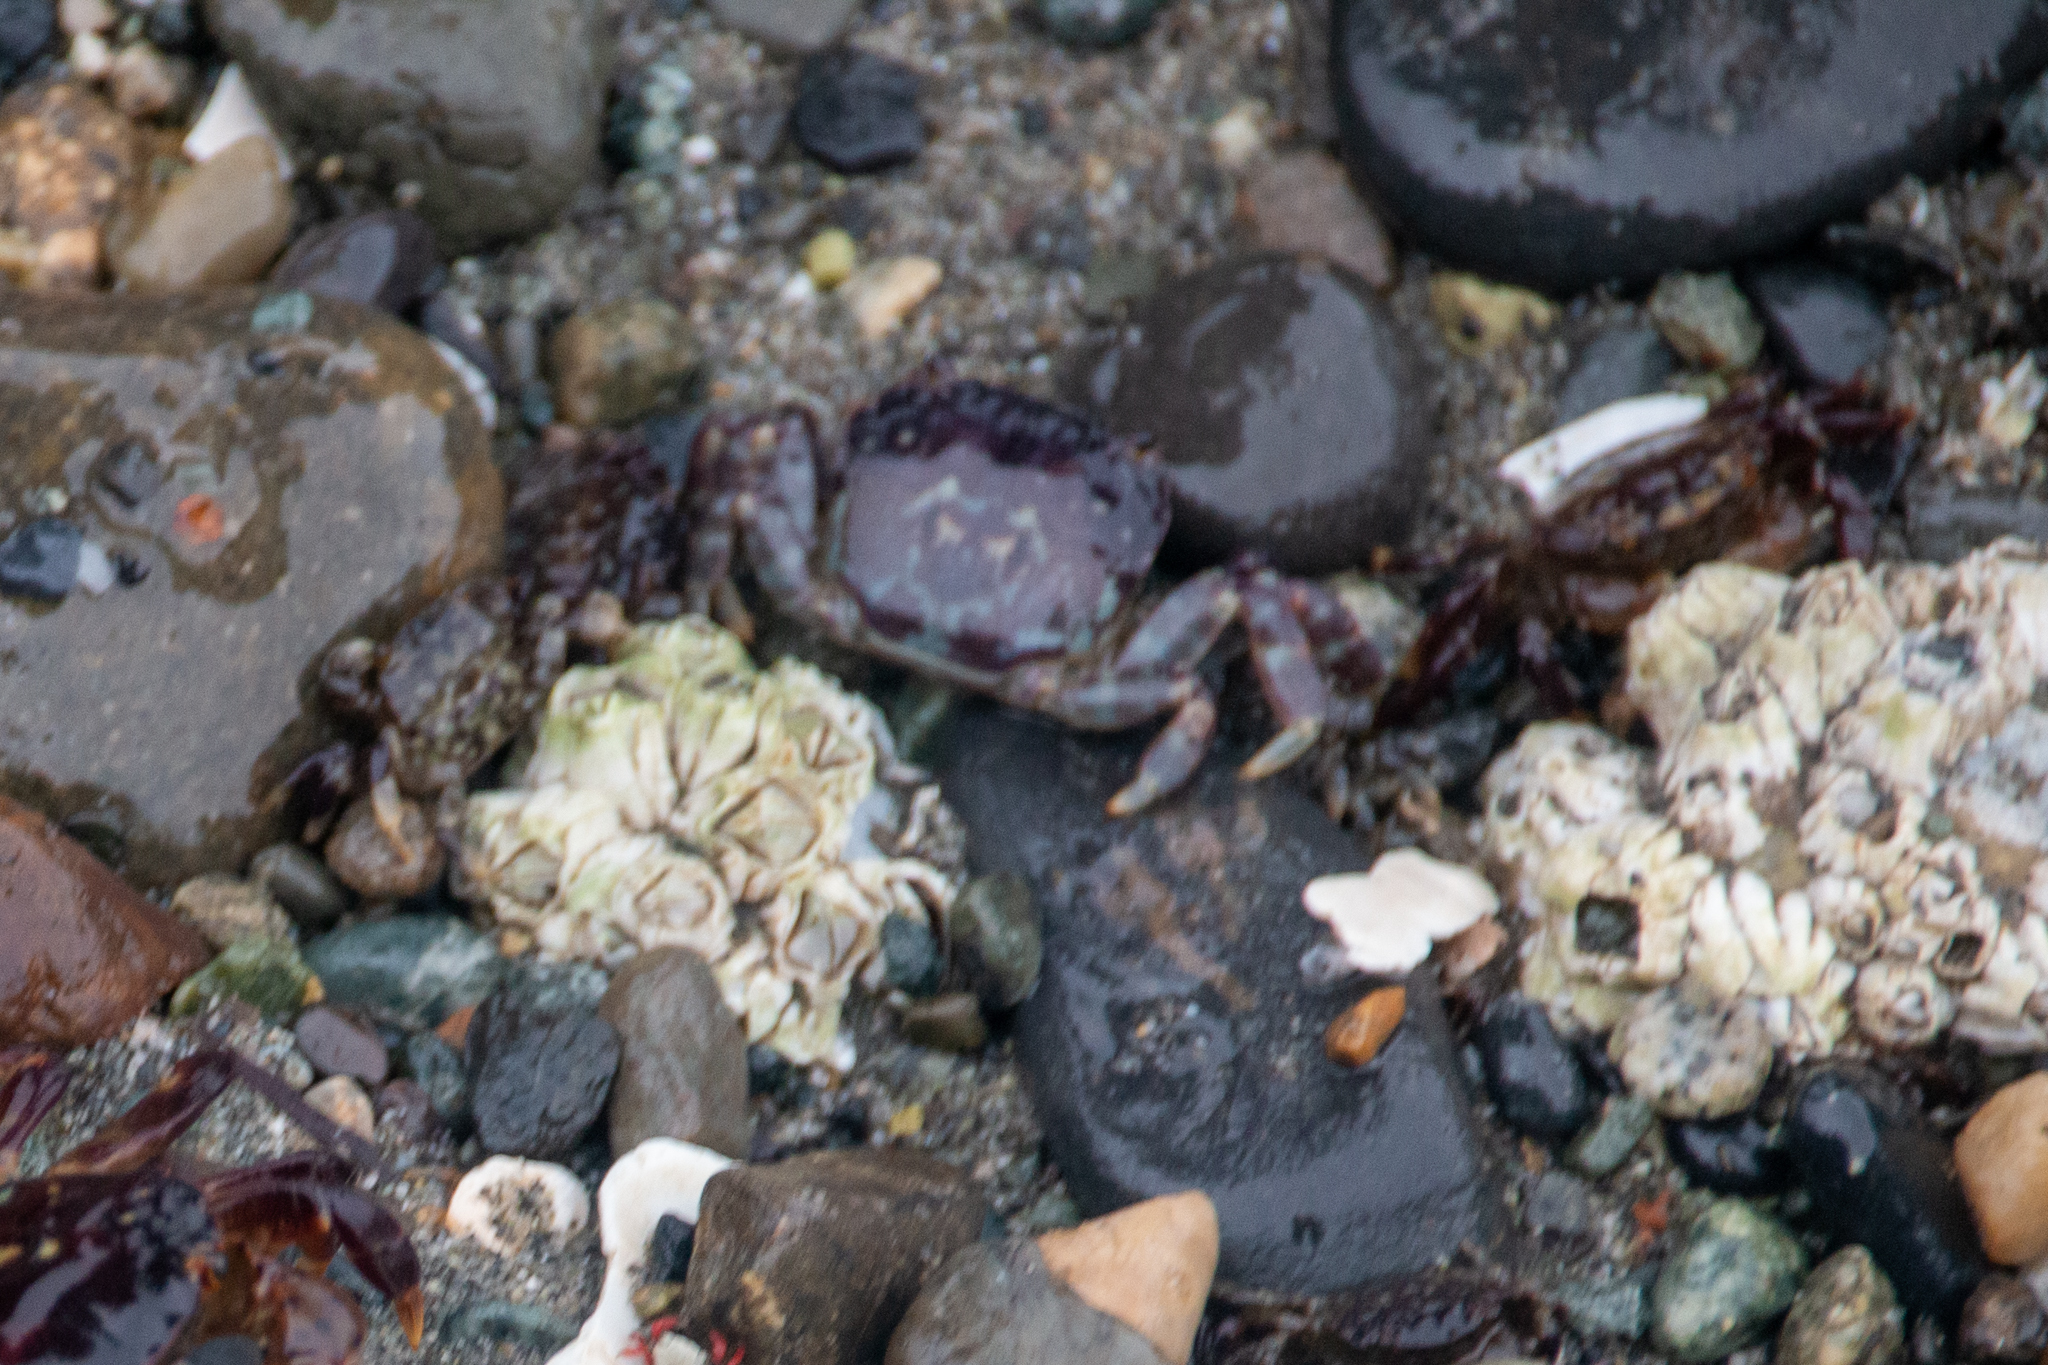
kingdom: Animalia
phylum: Arthropoda
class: Malacostraca
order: Decapoda
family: Varunidae
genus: Hemigrapsus
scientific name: Hemigrapsus nudus
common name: Purple shore crab
